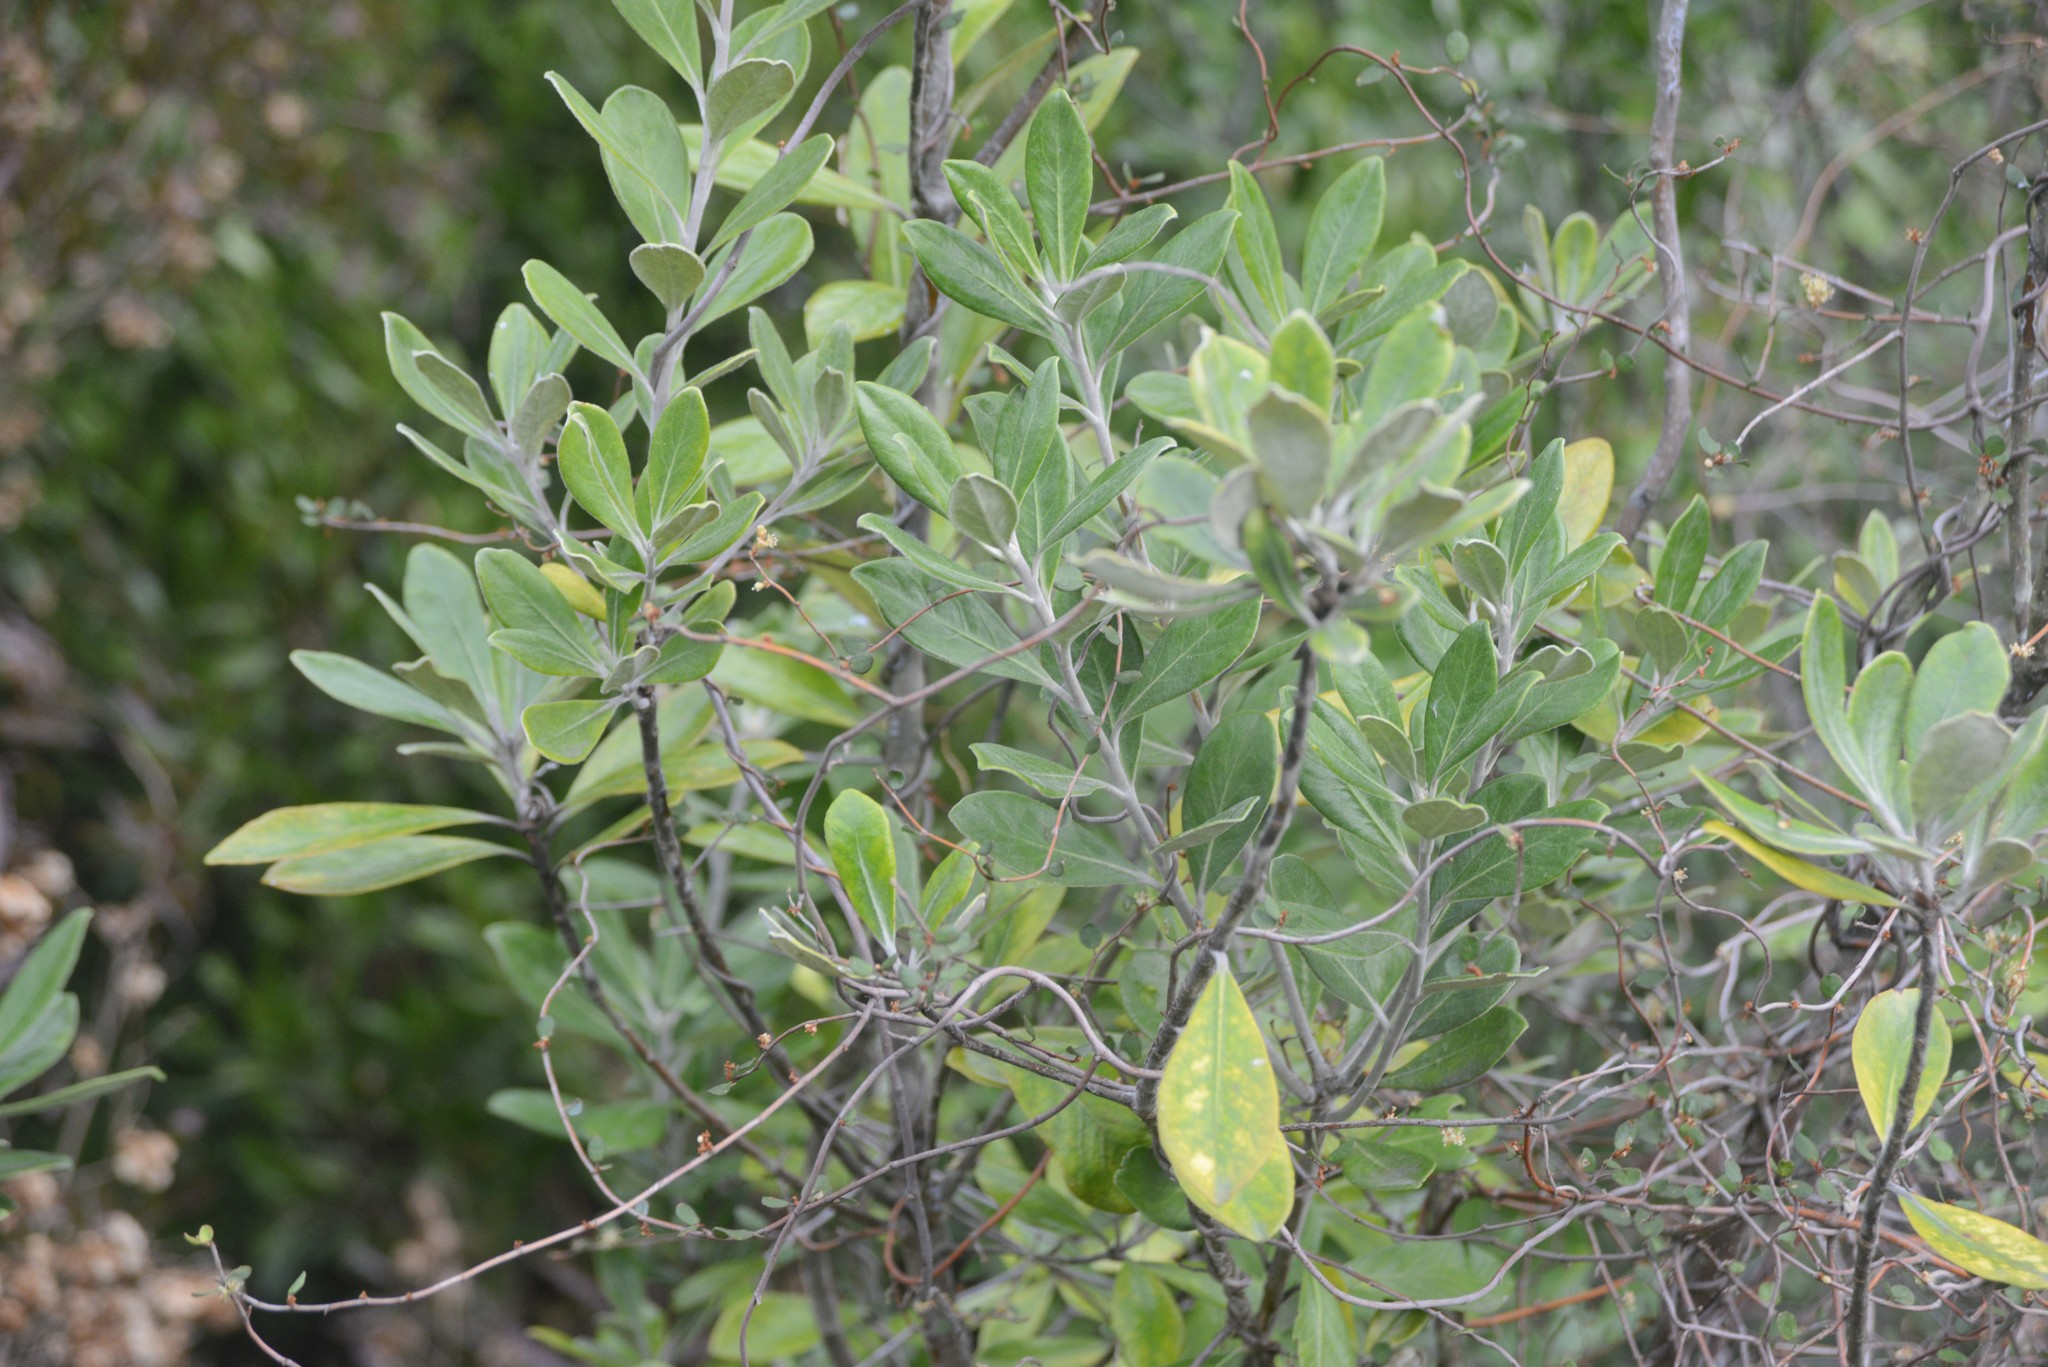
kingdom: Plantae
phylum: Tracheophyta
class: Magnoliopsida
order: Apiales
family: Pittosporaceae
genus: Pittosporum
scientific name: Pittosporum ralphii
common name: Ralph's desertwillow
